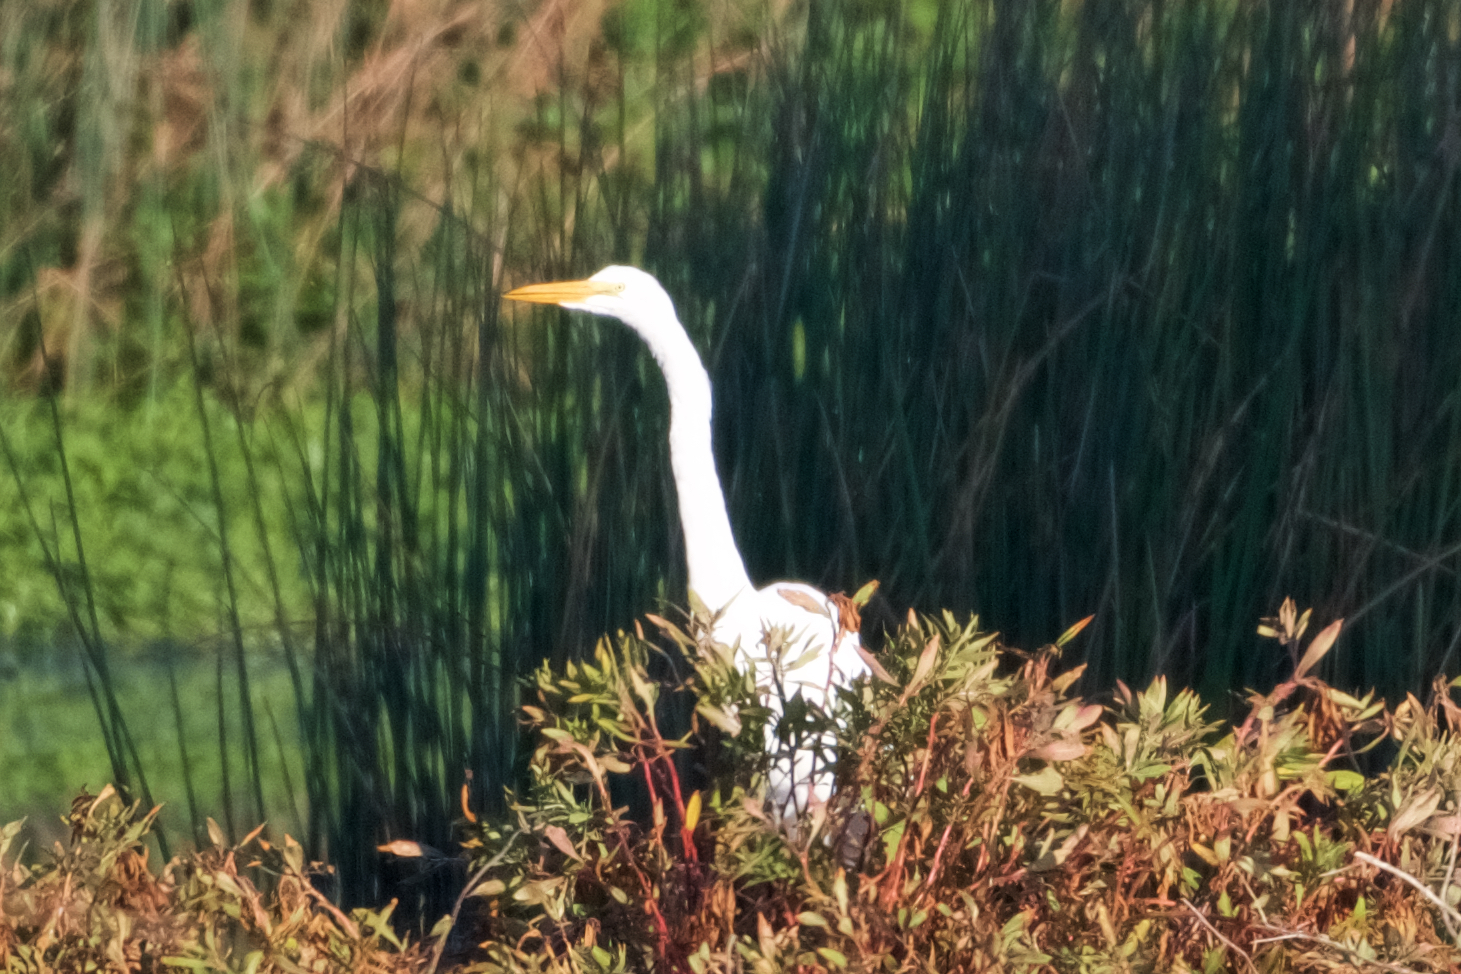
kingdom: Animalia
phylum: Chordata
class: Aves
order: Pelecaniformes
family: Ardeidae
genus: Ardea
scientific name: Ardea alba
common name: Great egret
